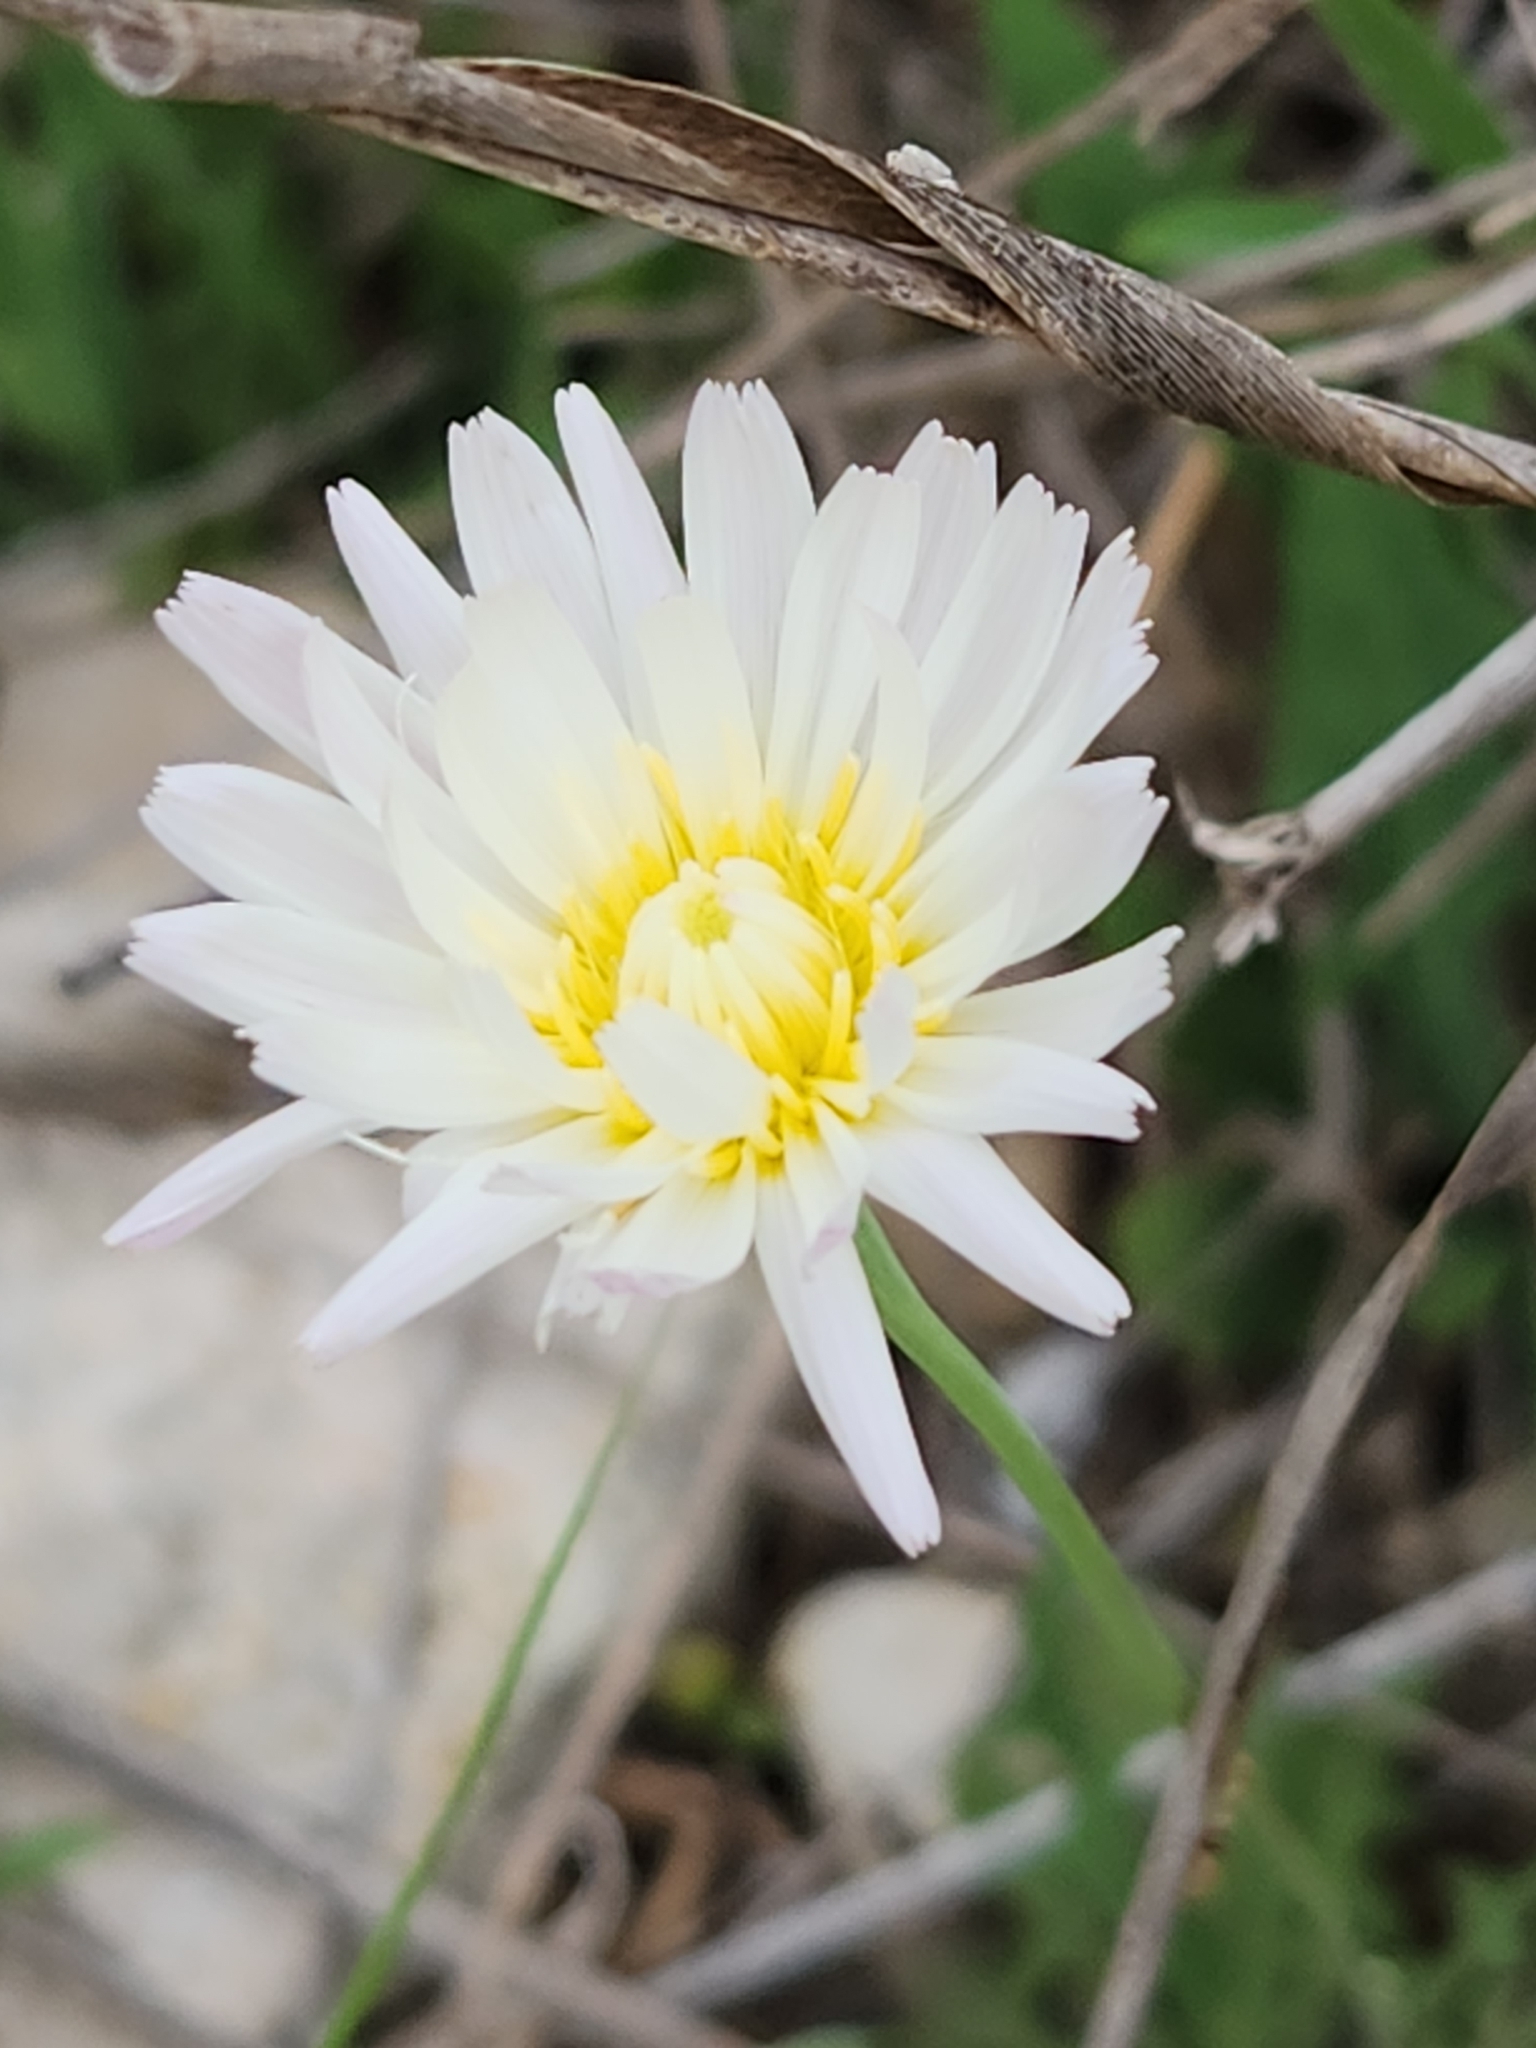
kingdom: Plantae
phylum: Tracheophyta
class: Magnoliopsida
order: Asterales
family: Asteraceae
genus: Pinaropappus
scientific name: Pinaropappus roseus
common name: Rock-lettuce
